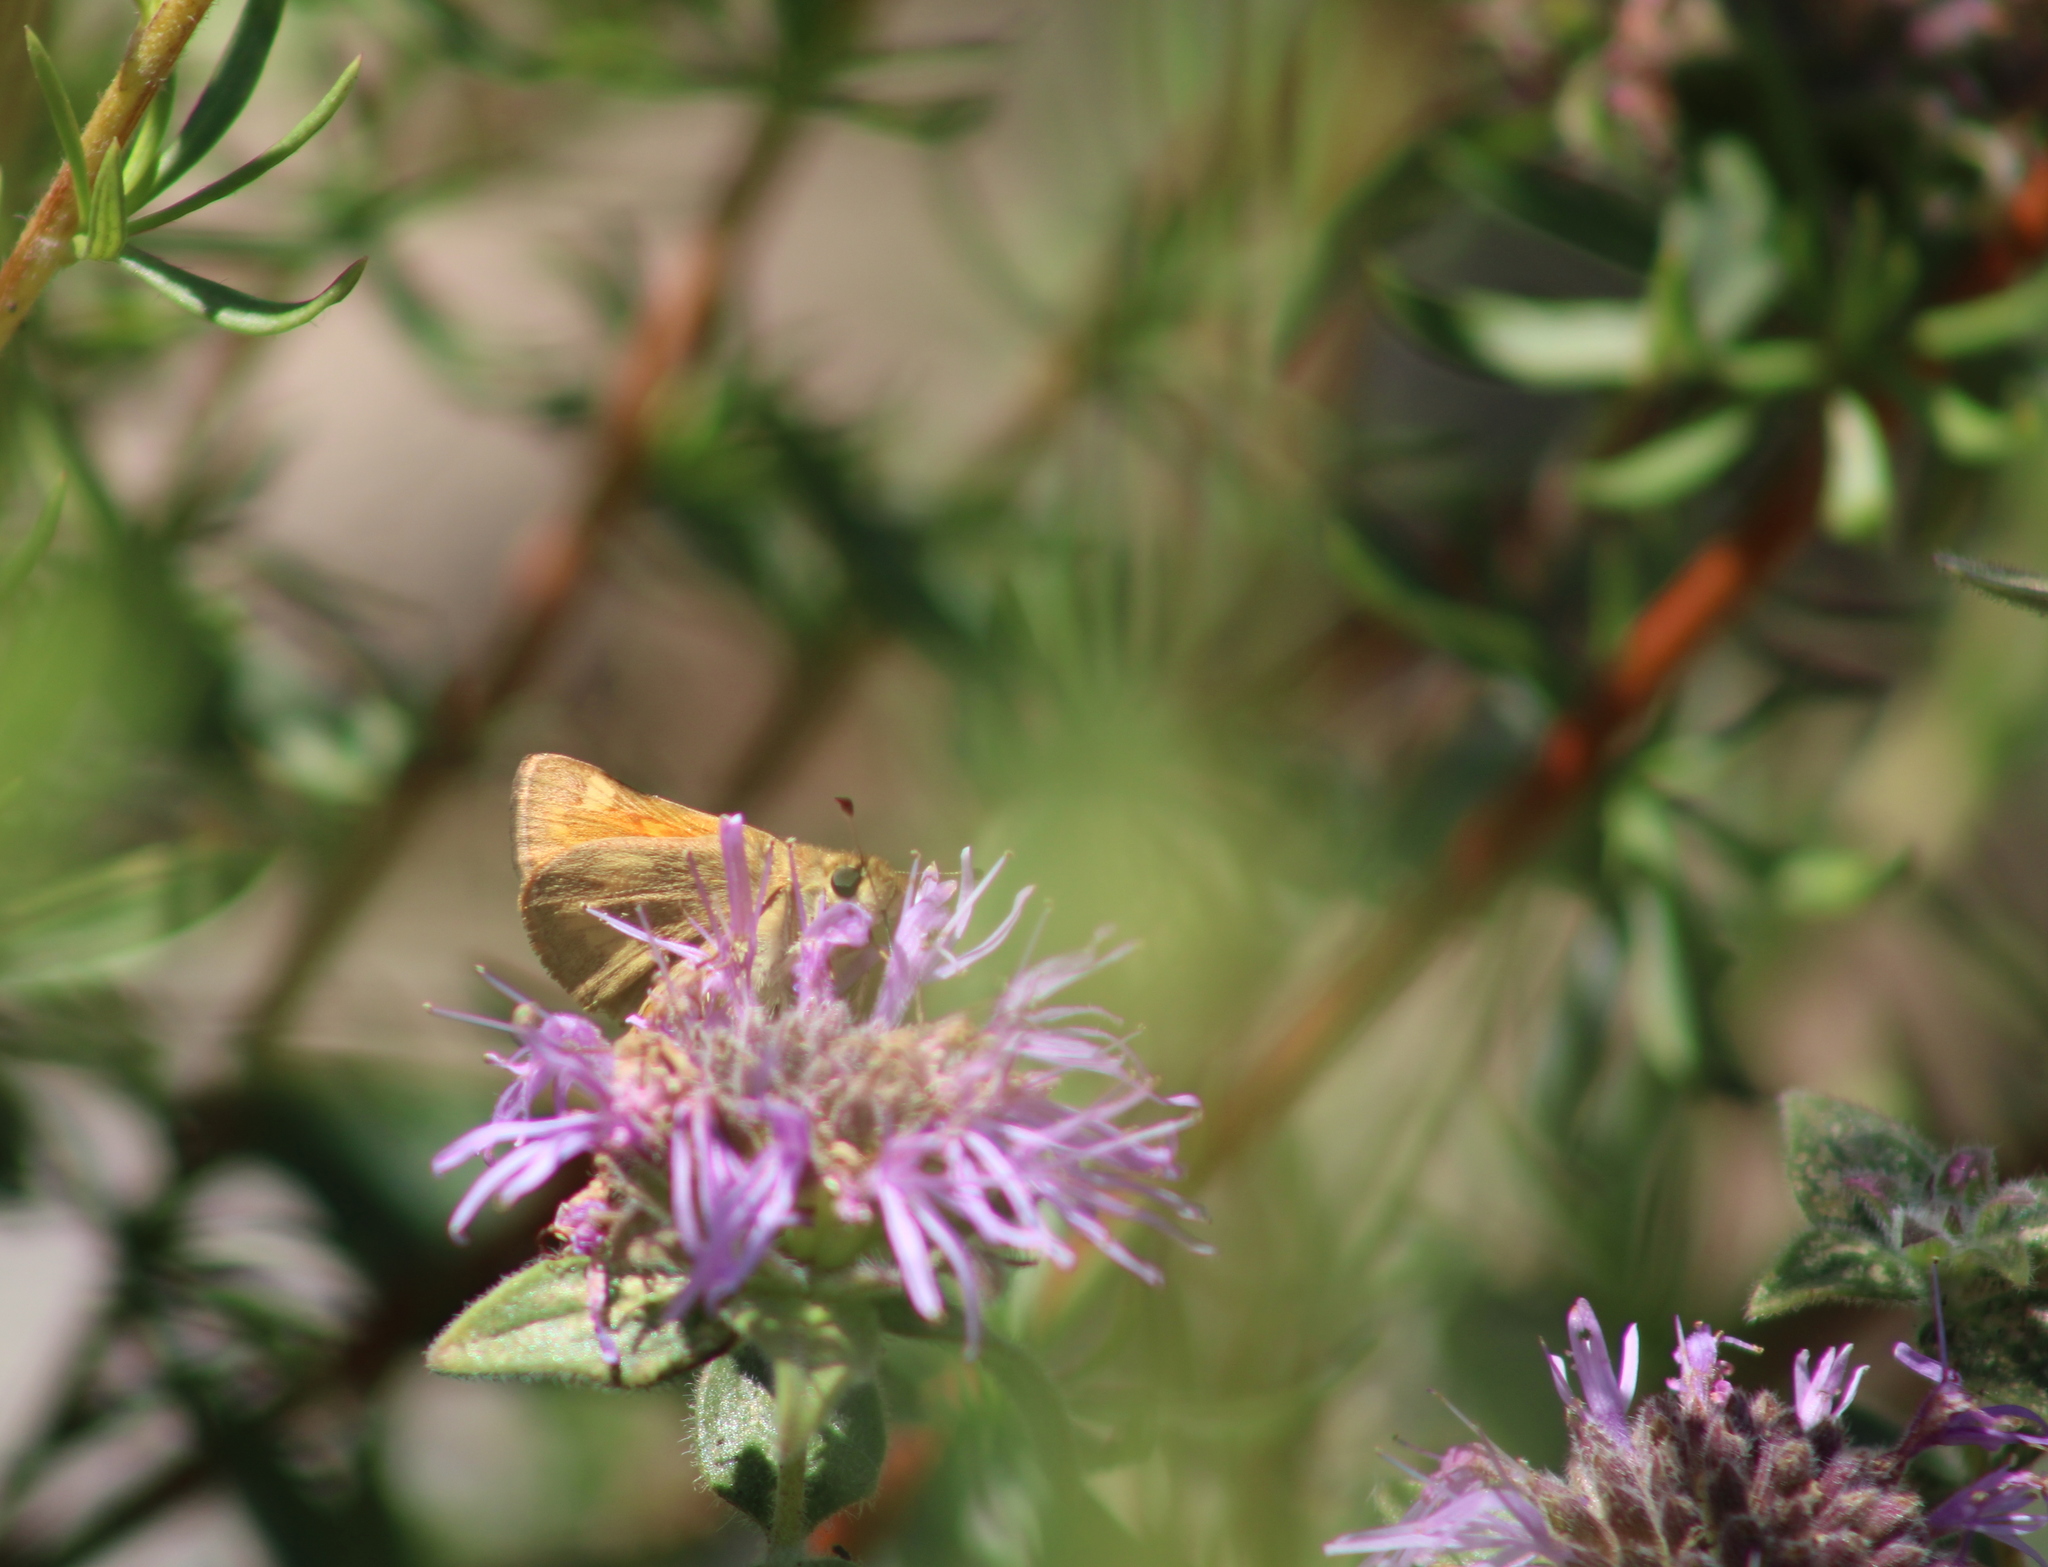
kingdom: Animalia
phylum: Arthropoda
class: Insecta
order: Lepidoptera
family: Hesperiidae
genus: Ochlodes
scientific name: Ochlodes sylvanoides
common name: Woodland skipper
